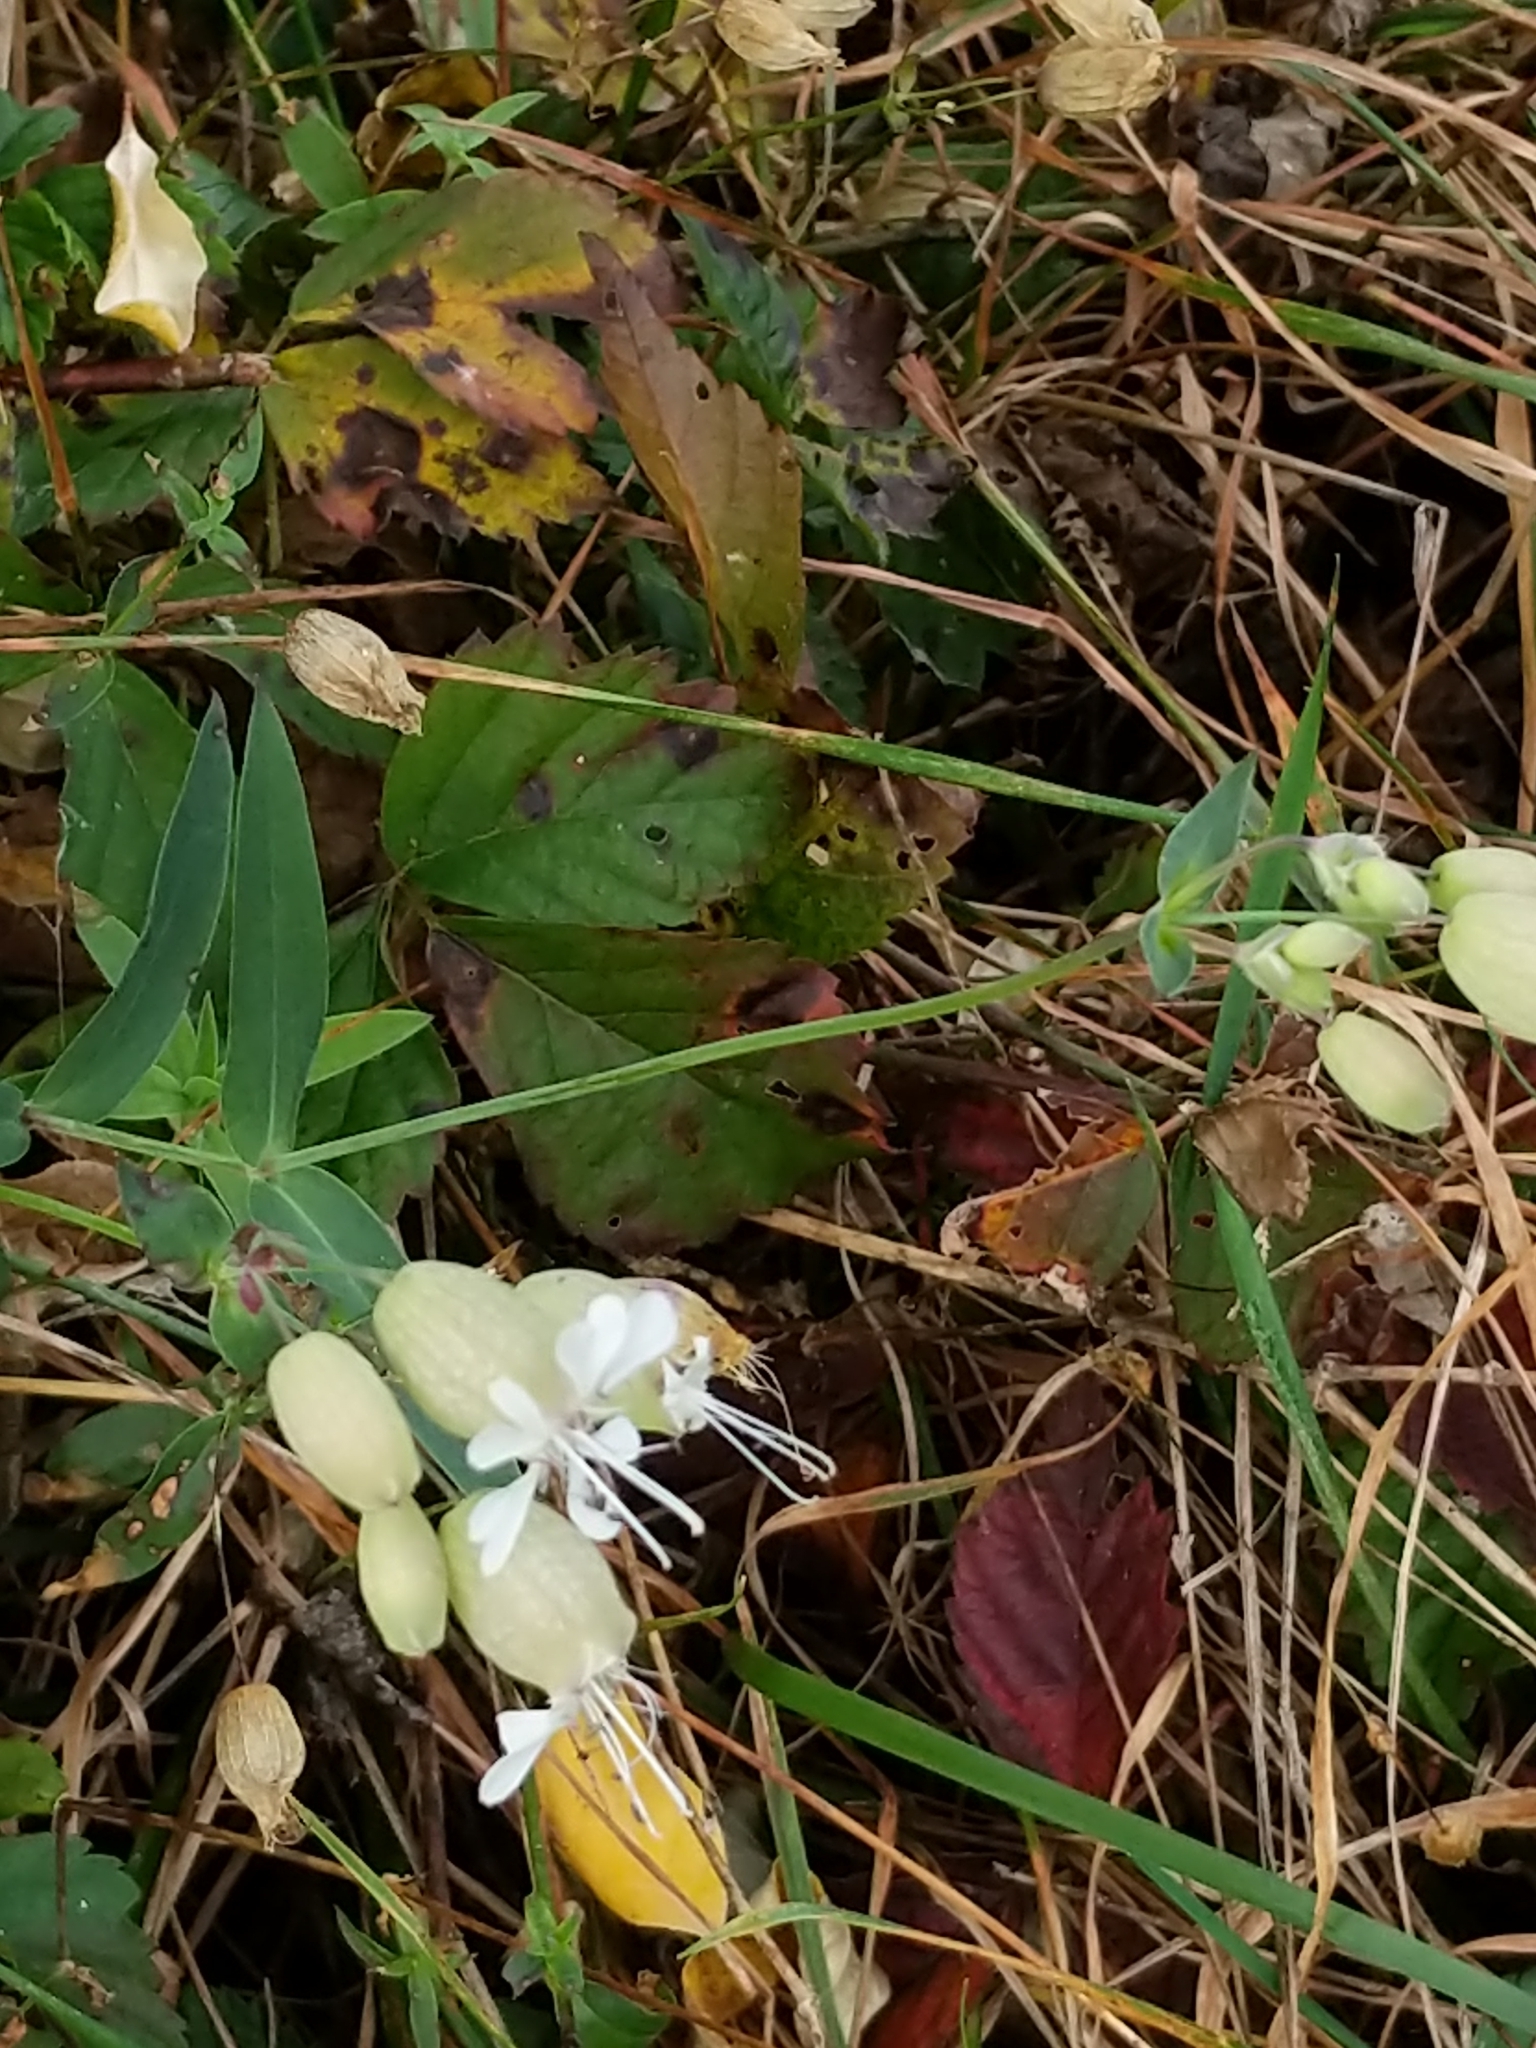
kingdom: Plantae
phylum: Tracheophyta
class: Magnoliopsida
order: Caryophyllales
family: Caryophyllaceae
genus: Silene
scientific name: Silene vulgaris
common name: Bladder campion
